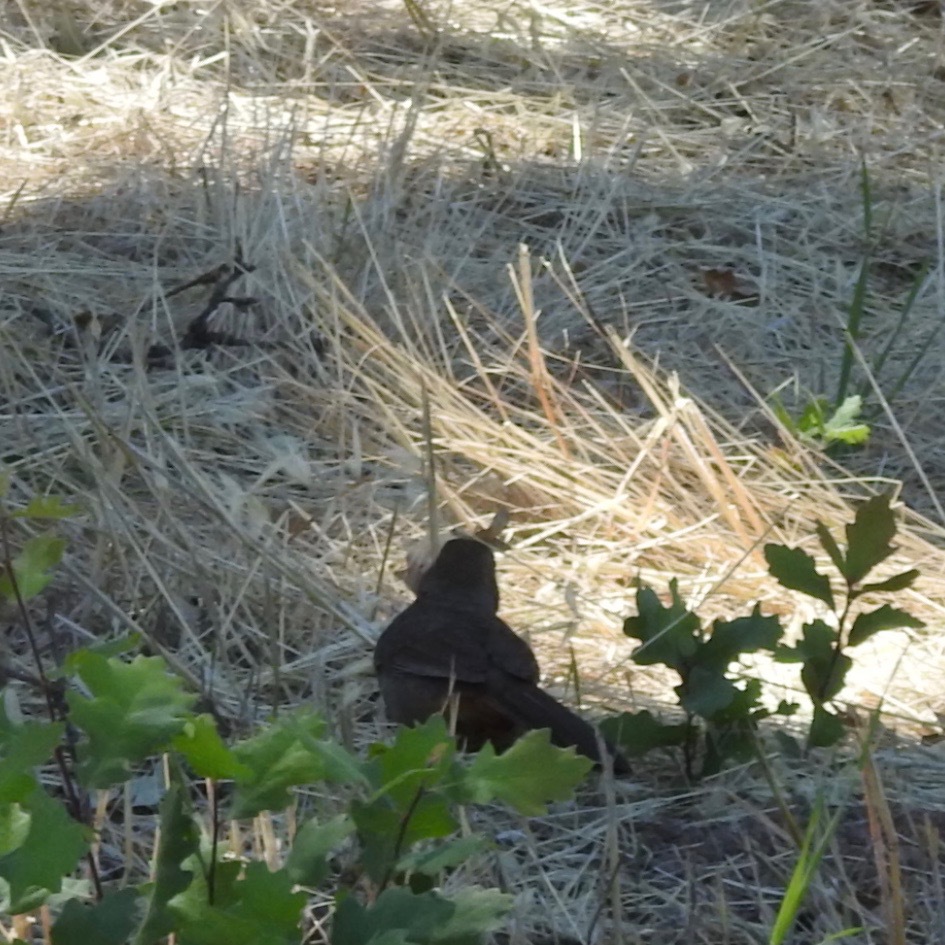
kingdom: Animalia
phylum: Chordata
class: Aves
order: Passeriformes
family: Passerellidae
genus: Melozone
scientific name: Melozone crissalis
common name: California towhee
